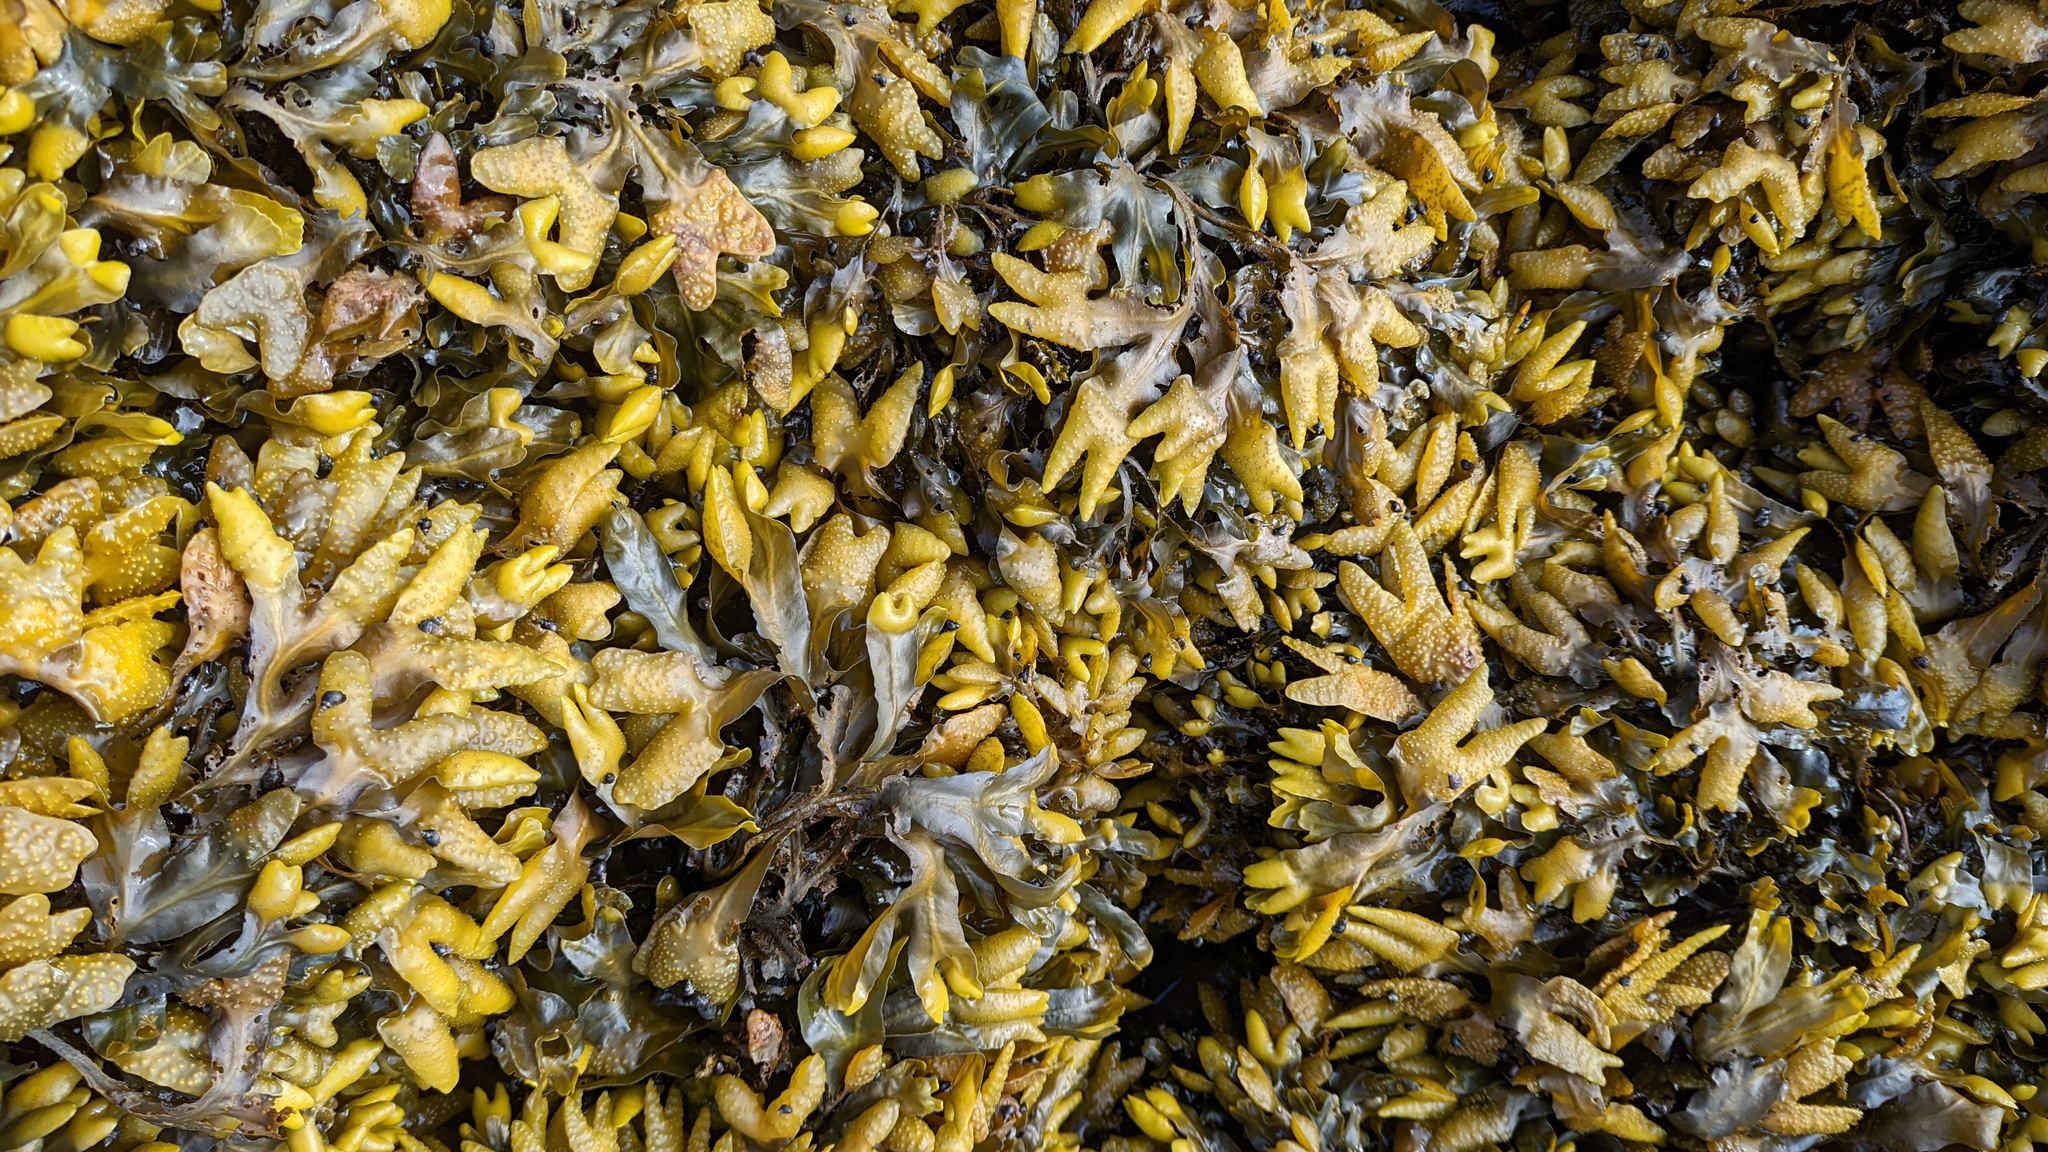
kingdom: Chromista
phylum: Ochrophyta
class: Phaeophyceae
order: Fucales
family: Fucaceae
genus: Fucus
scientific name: Fucus distichus
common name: Rockweed
